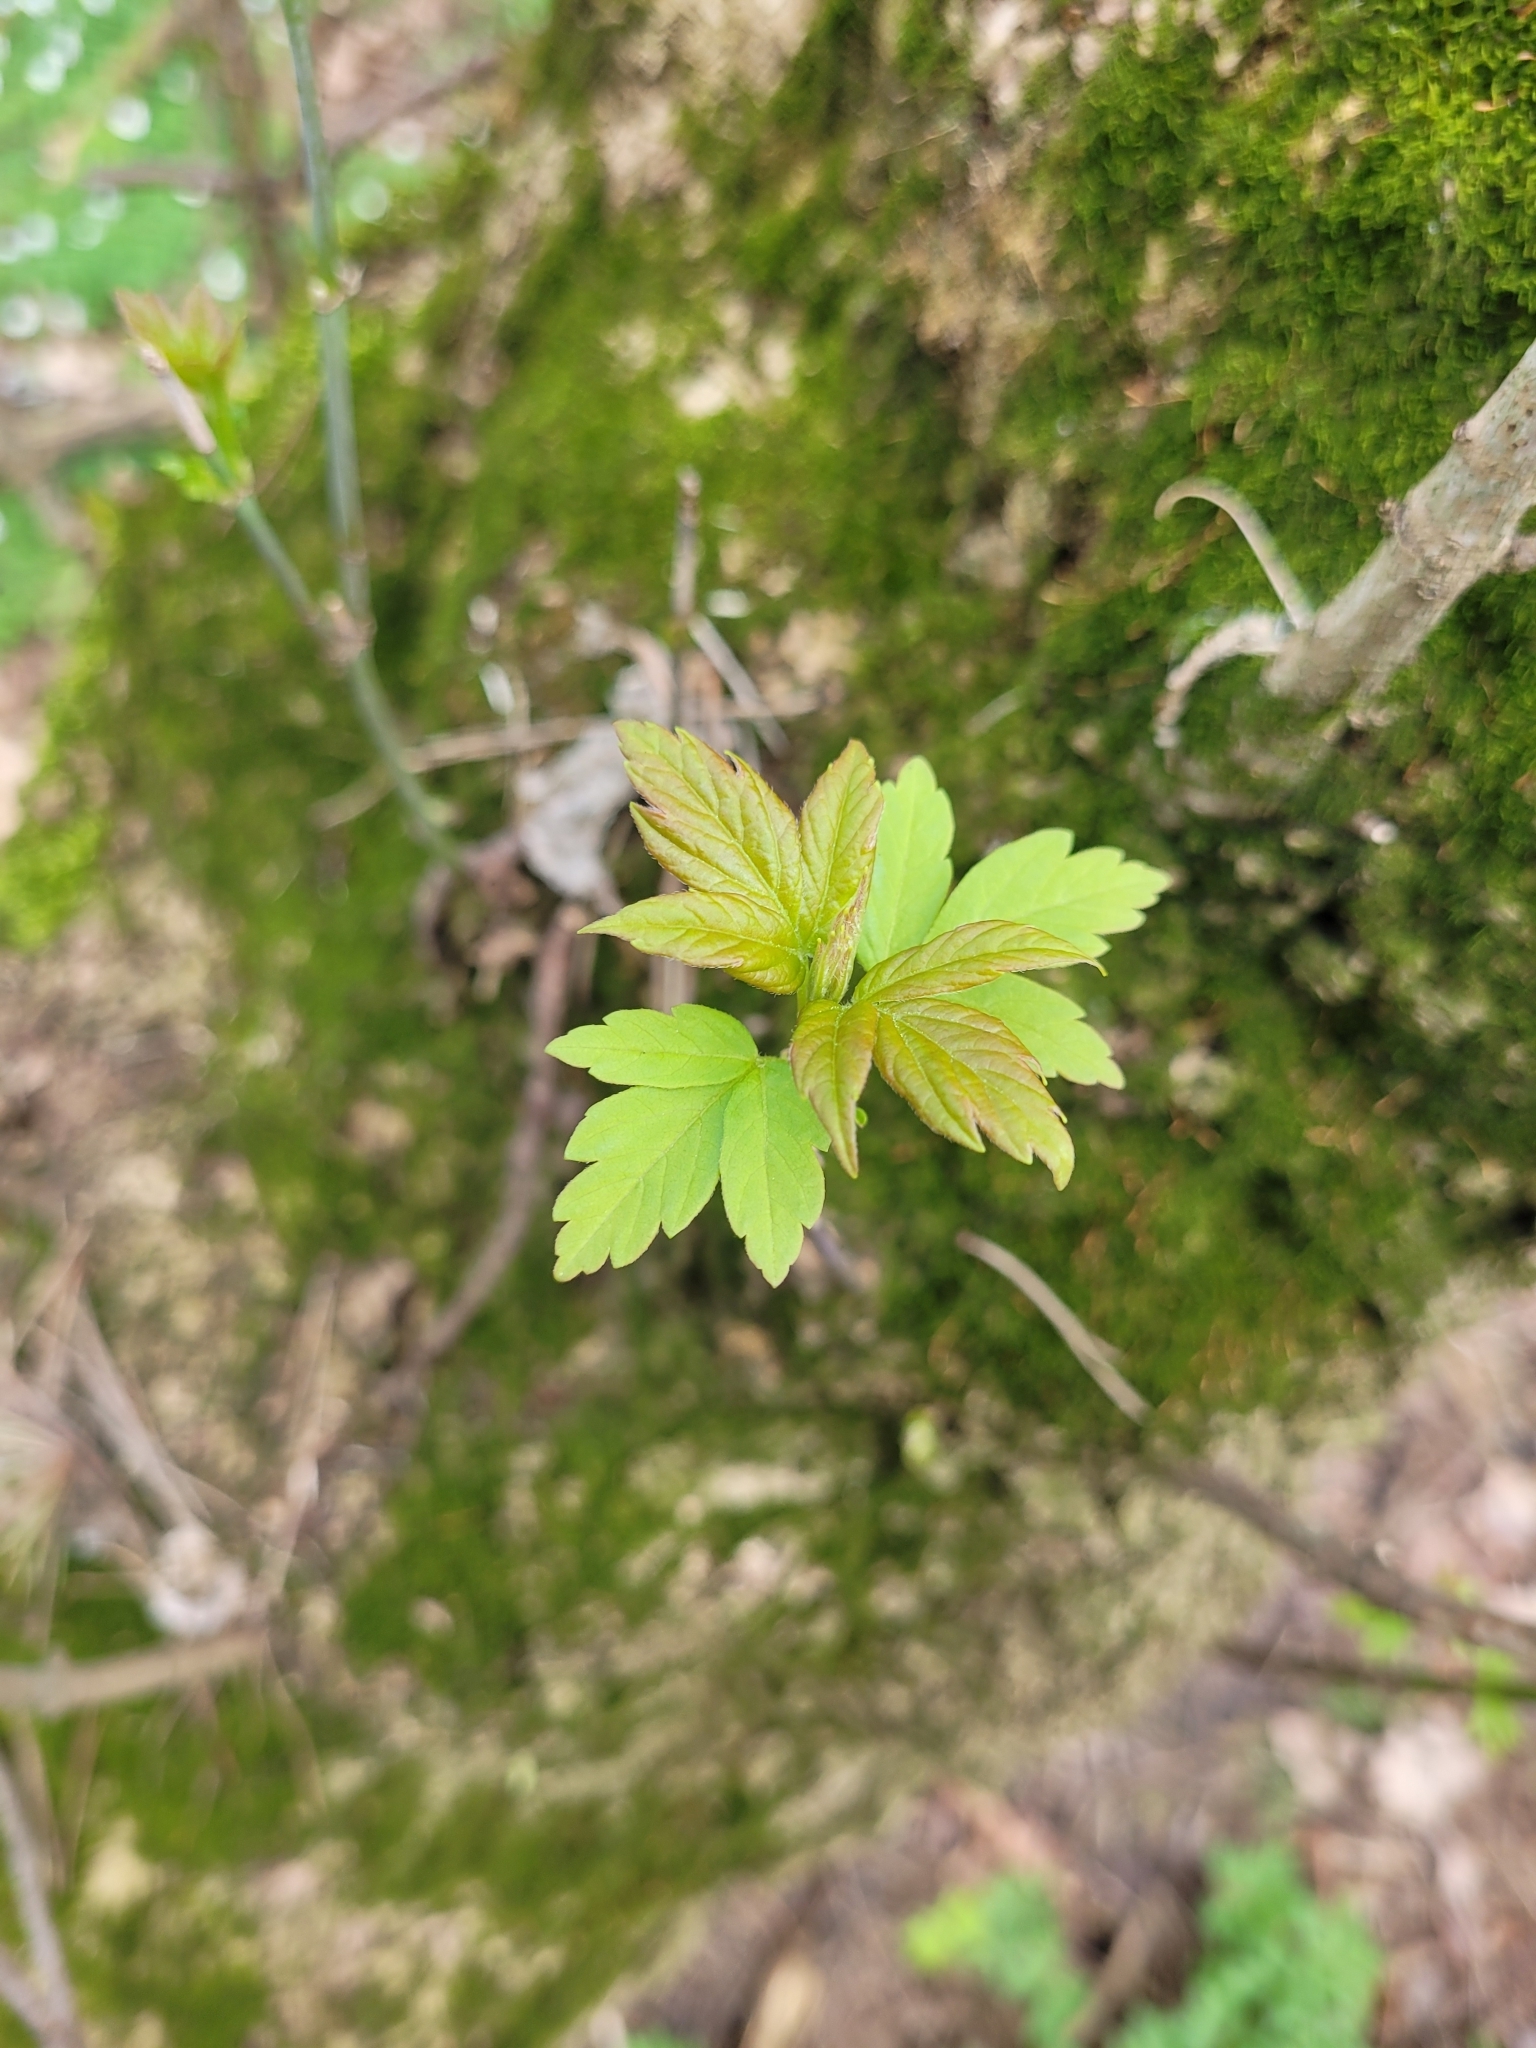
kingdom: Plantae
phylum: Tracheophyta
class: Magnoliopsida
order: Sapindales
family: Sapindaceae
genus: Acer
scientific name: Acer negundo
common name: Ashleaf maple
